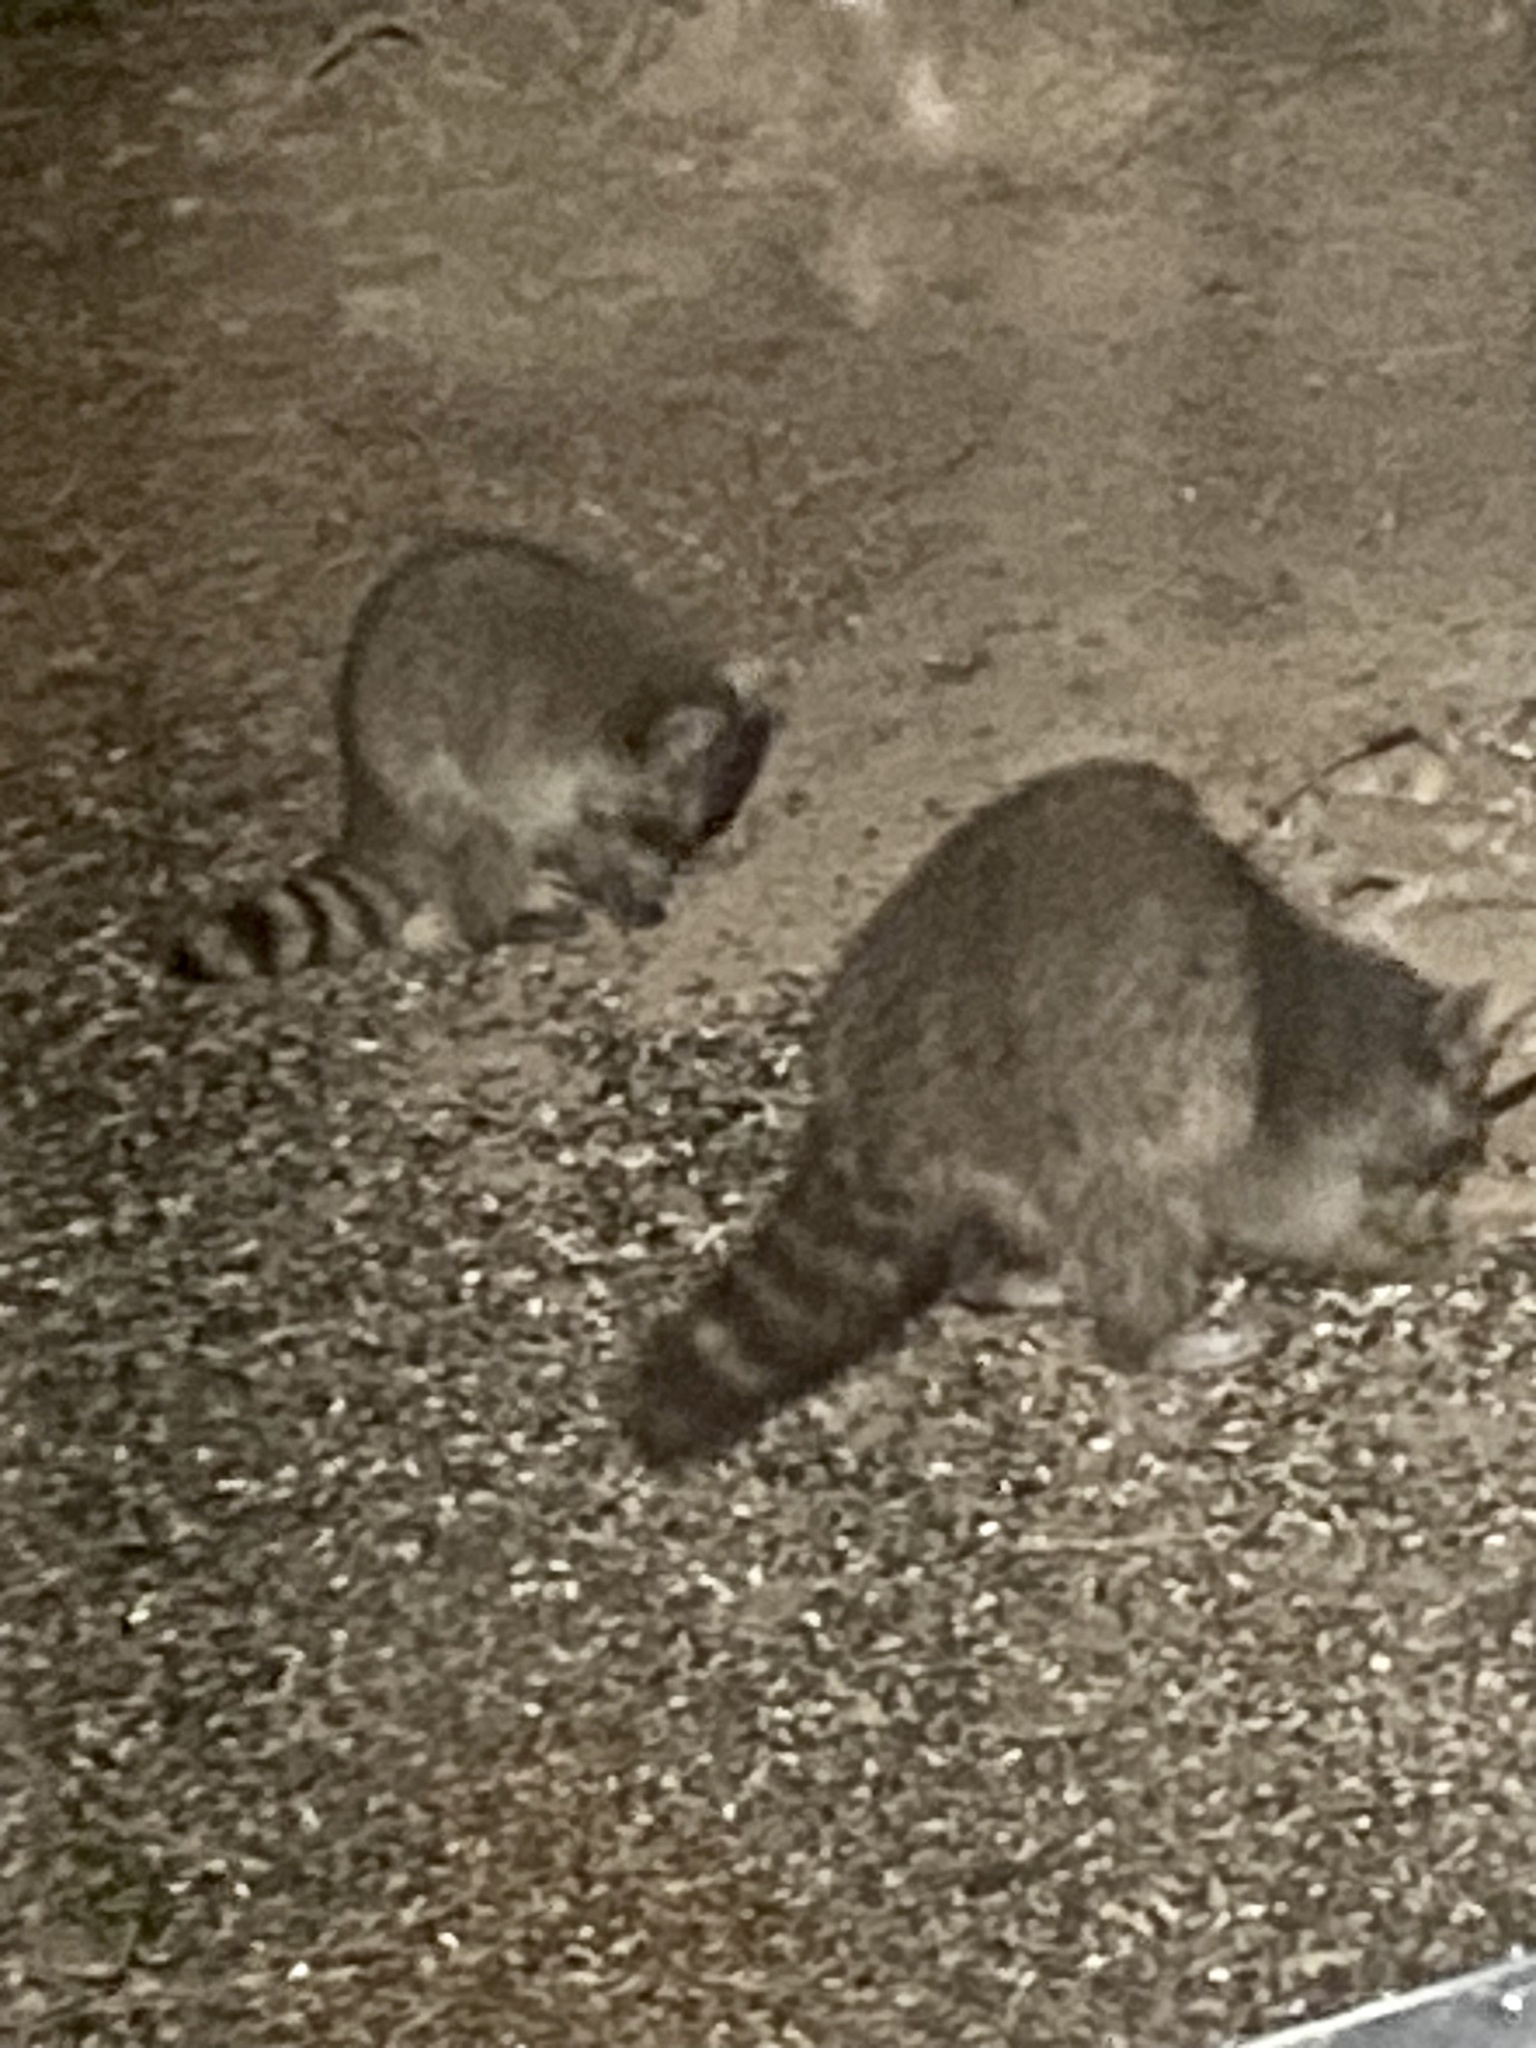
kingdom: Animalia
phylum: Chordata
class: Mammalia
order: Carnivora
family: Procyonidae
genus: Procyon
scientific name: Procyon lotor
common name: Raccoon
